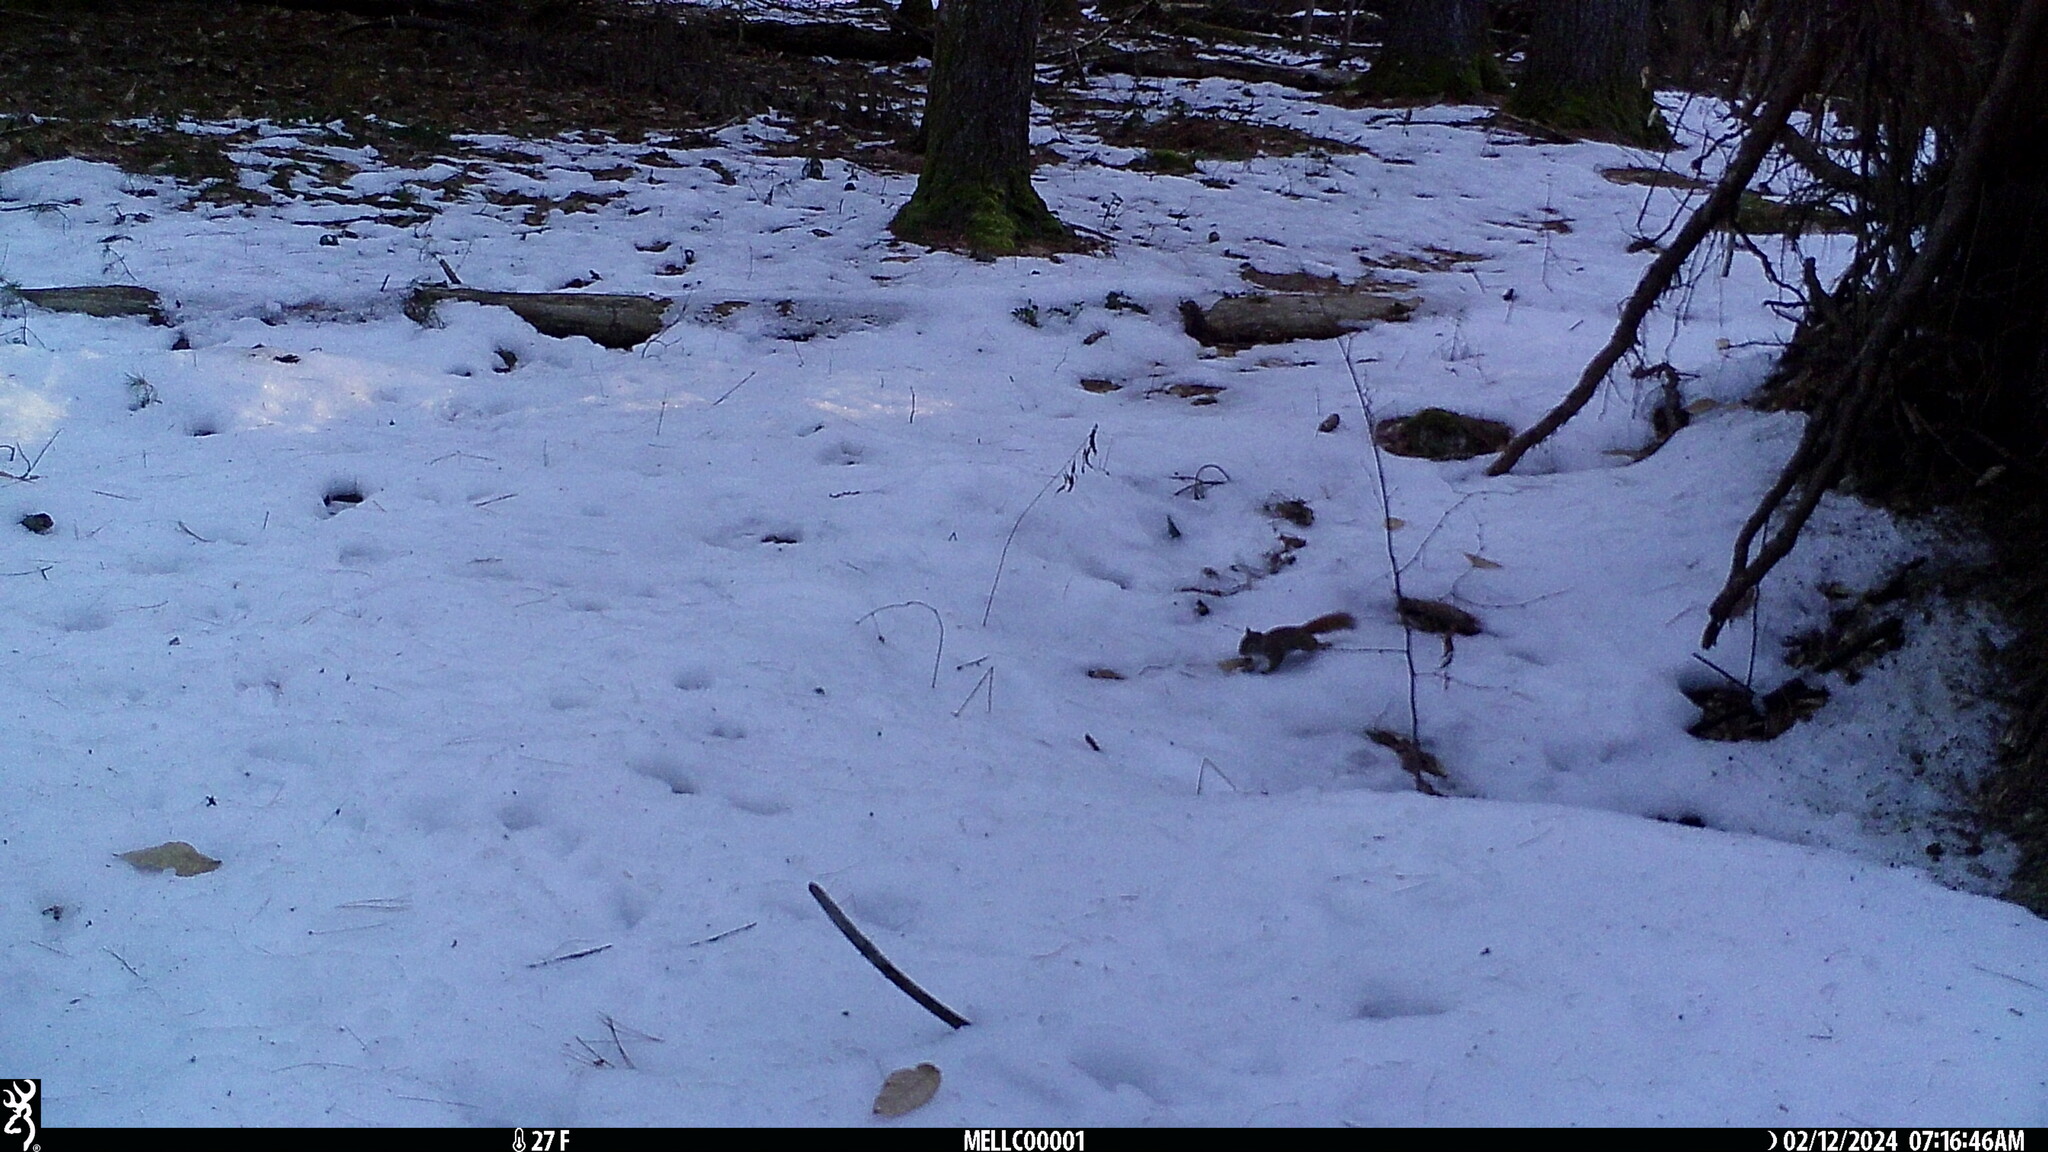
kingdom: Animalia
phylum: Chordata
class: Mammalia
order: Rodentia
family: Sciuridae
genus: Tamiasciurus
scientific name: Tamiasciurus hudsonicus
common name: Red squirrel
